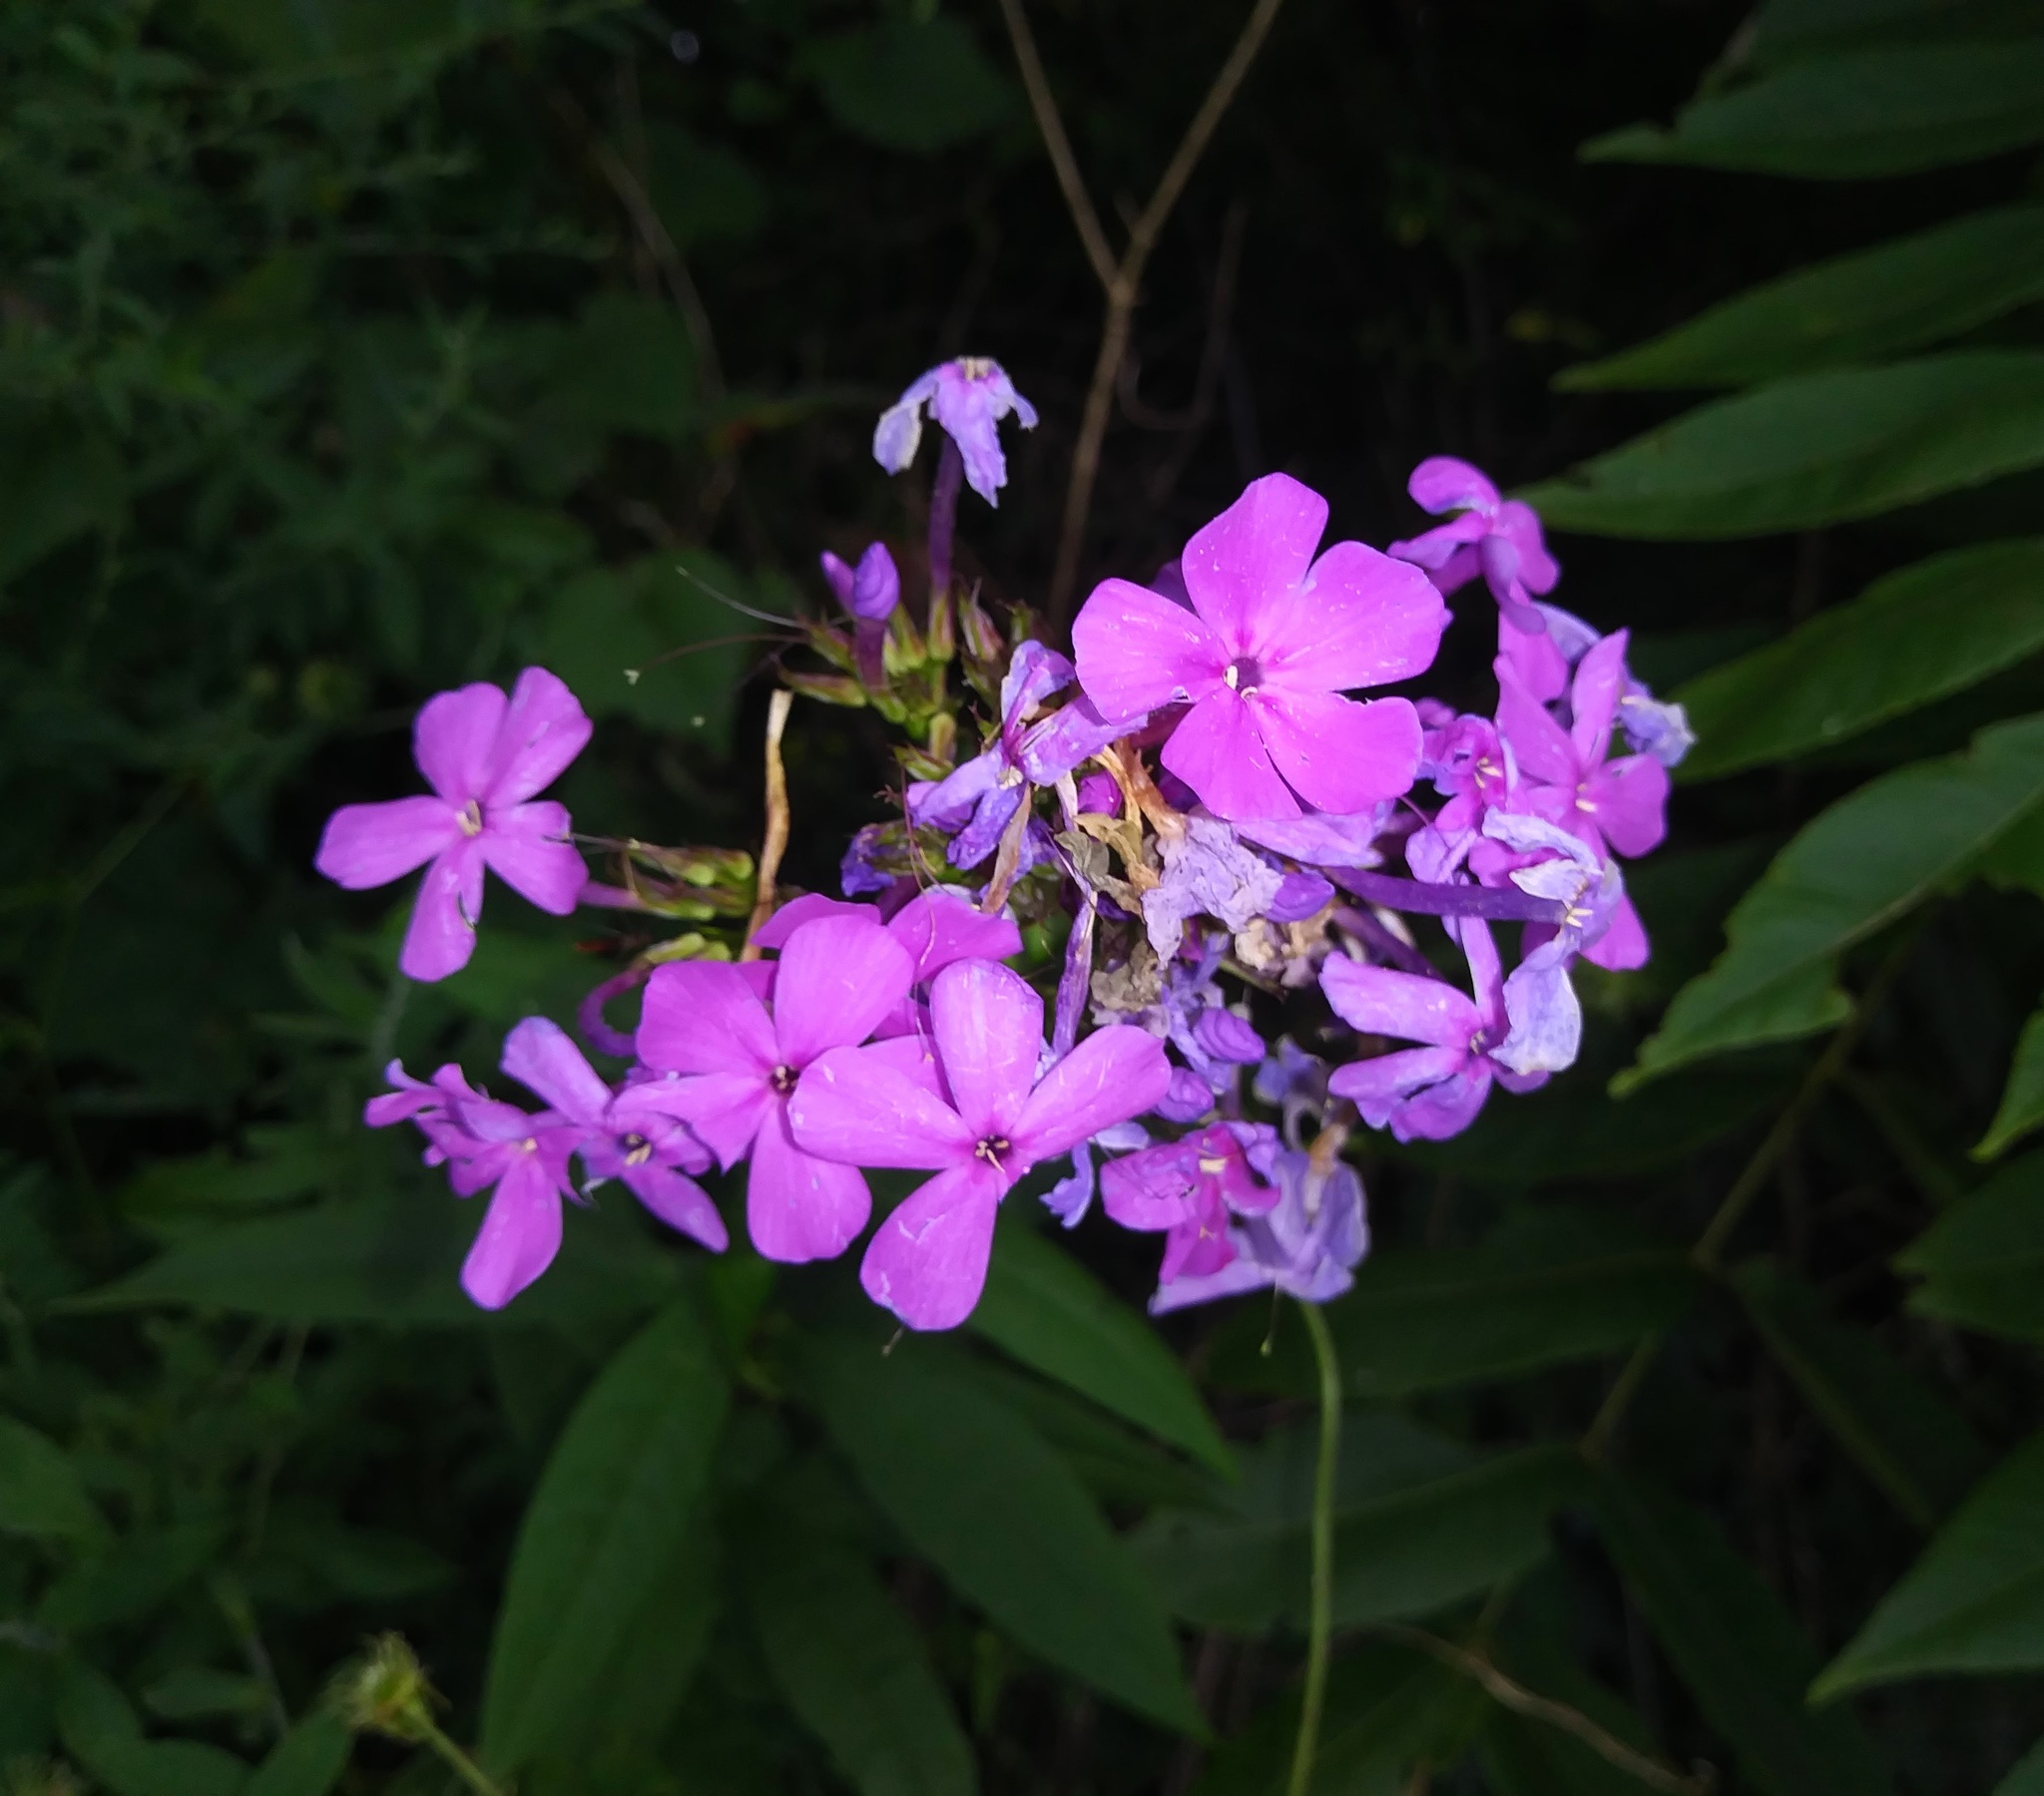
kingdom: Plantae
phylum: Tracheophyta
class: Magnoliopsida
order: Ericales
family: Polemoniaceae
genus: Phlox
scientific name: Phlox paniculata
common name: Fall phlox
